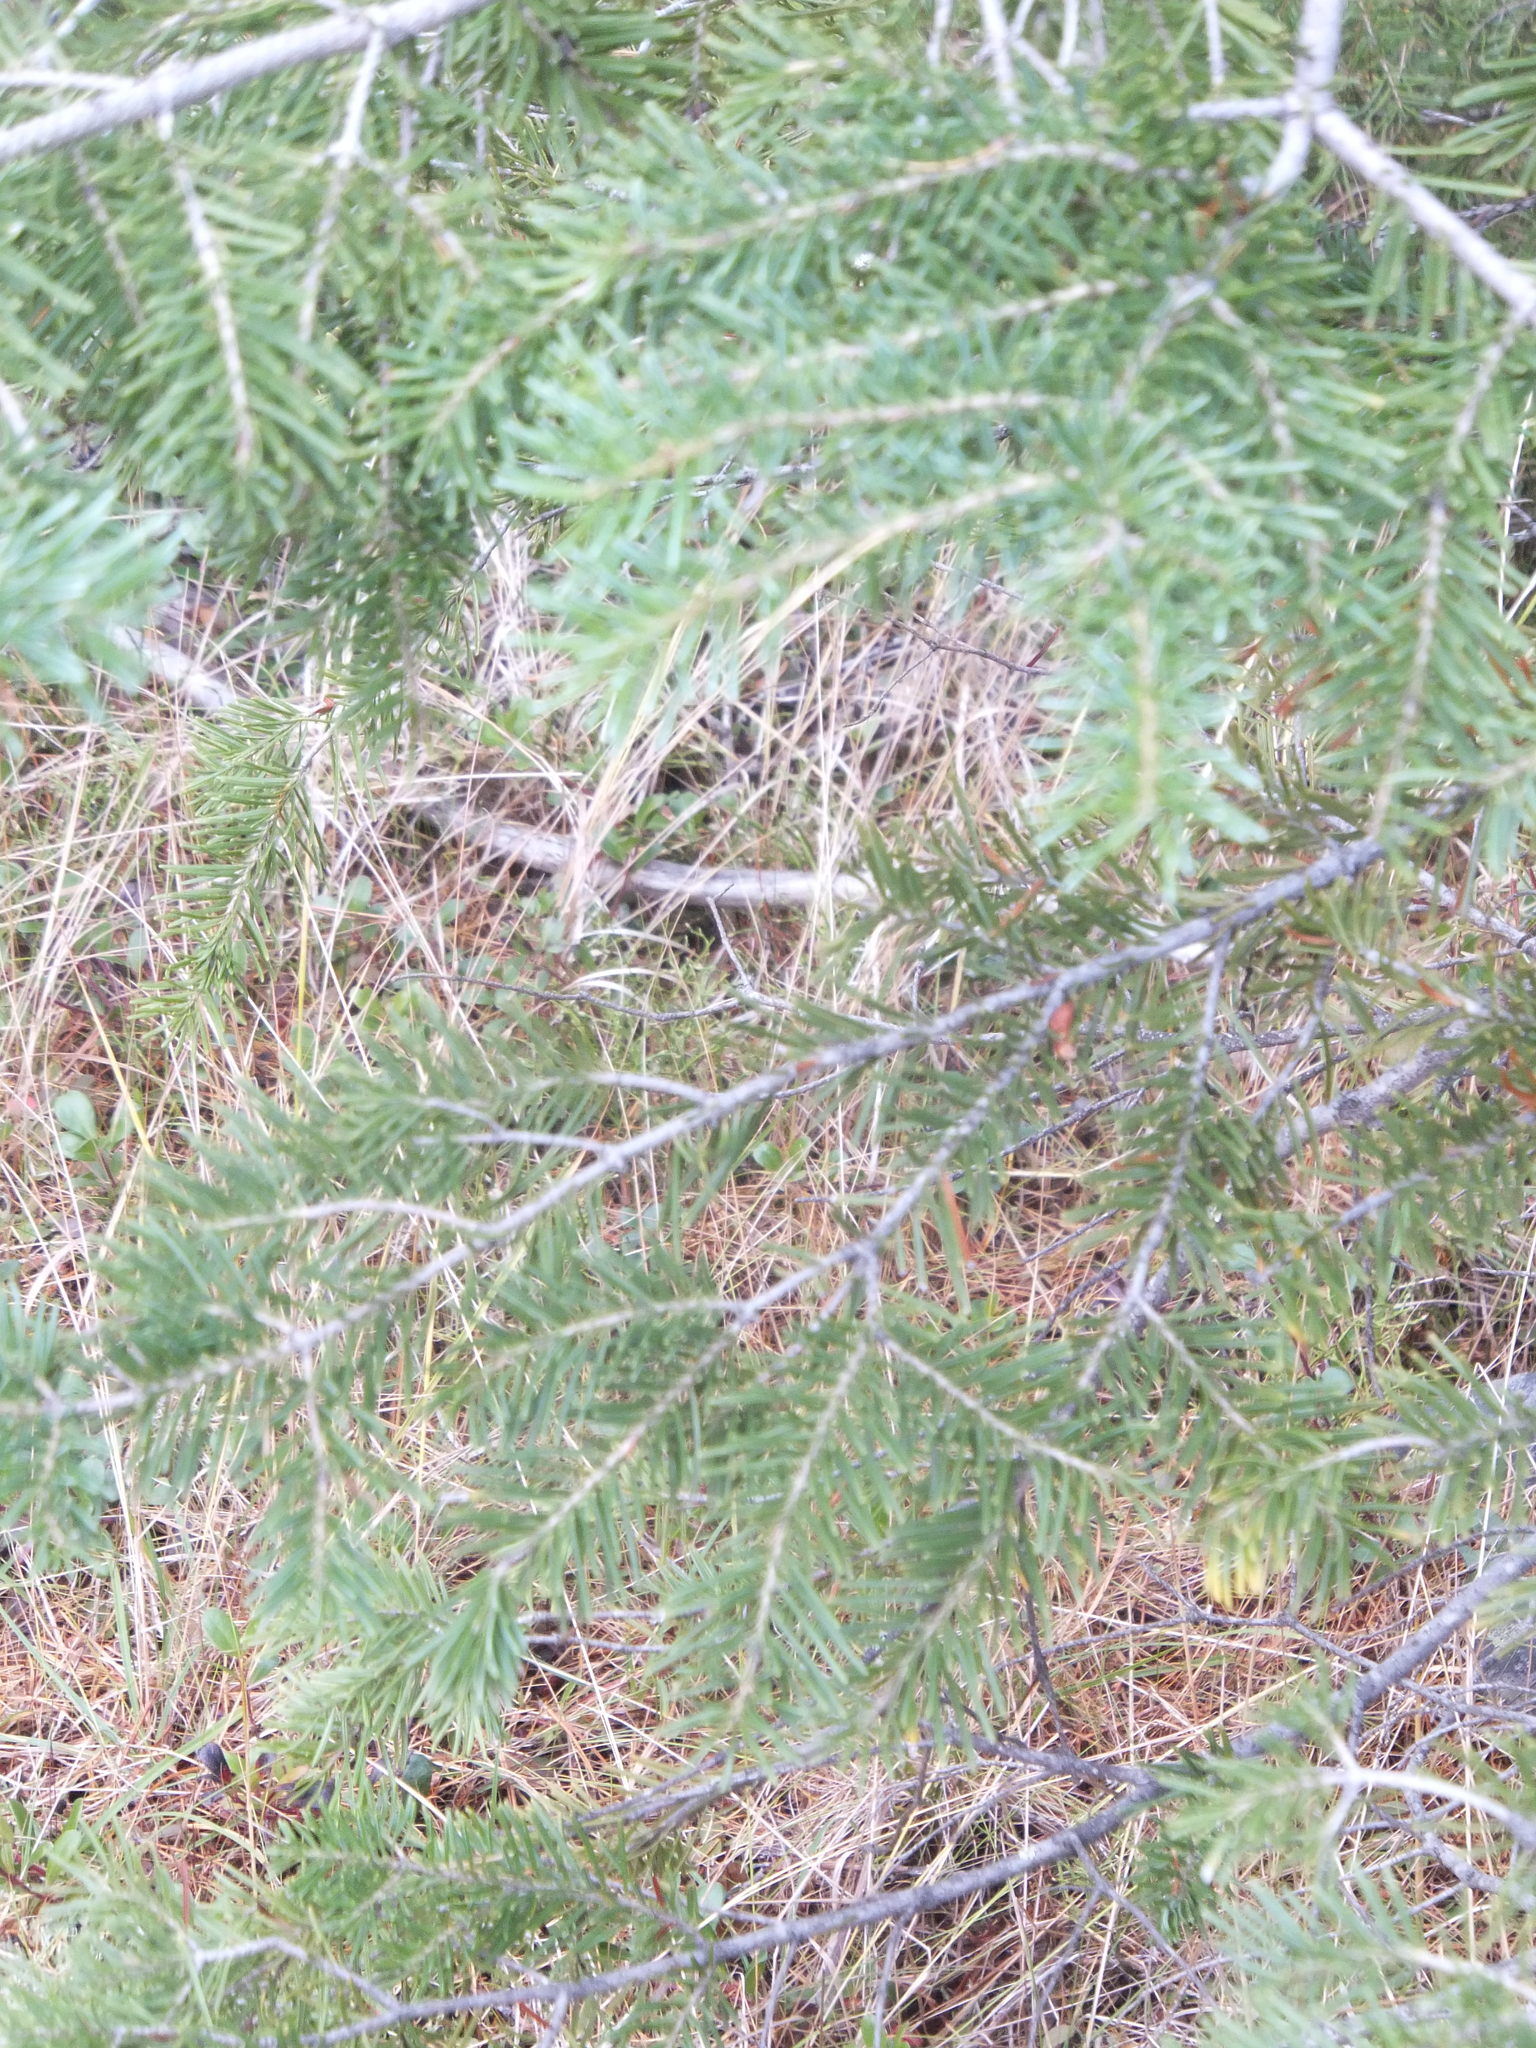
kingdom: Plantae
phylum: Tracheophyta
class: Pinopsida
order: Pinales
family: Pinaceae
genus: Pseudotsuga
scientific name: Pseudotsuga menziesii
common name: Douglas fir
